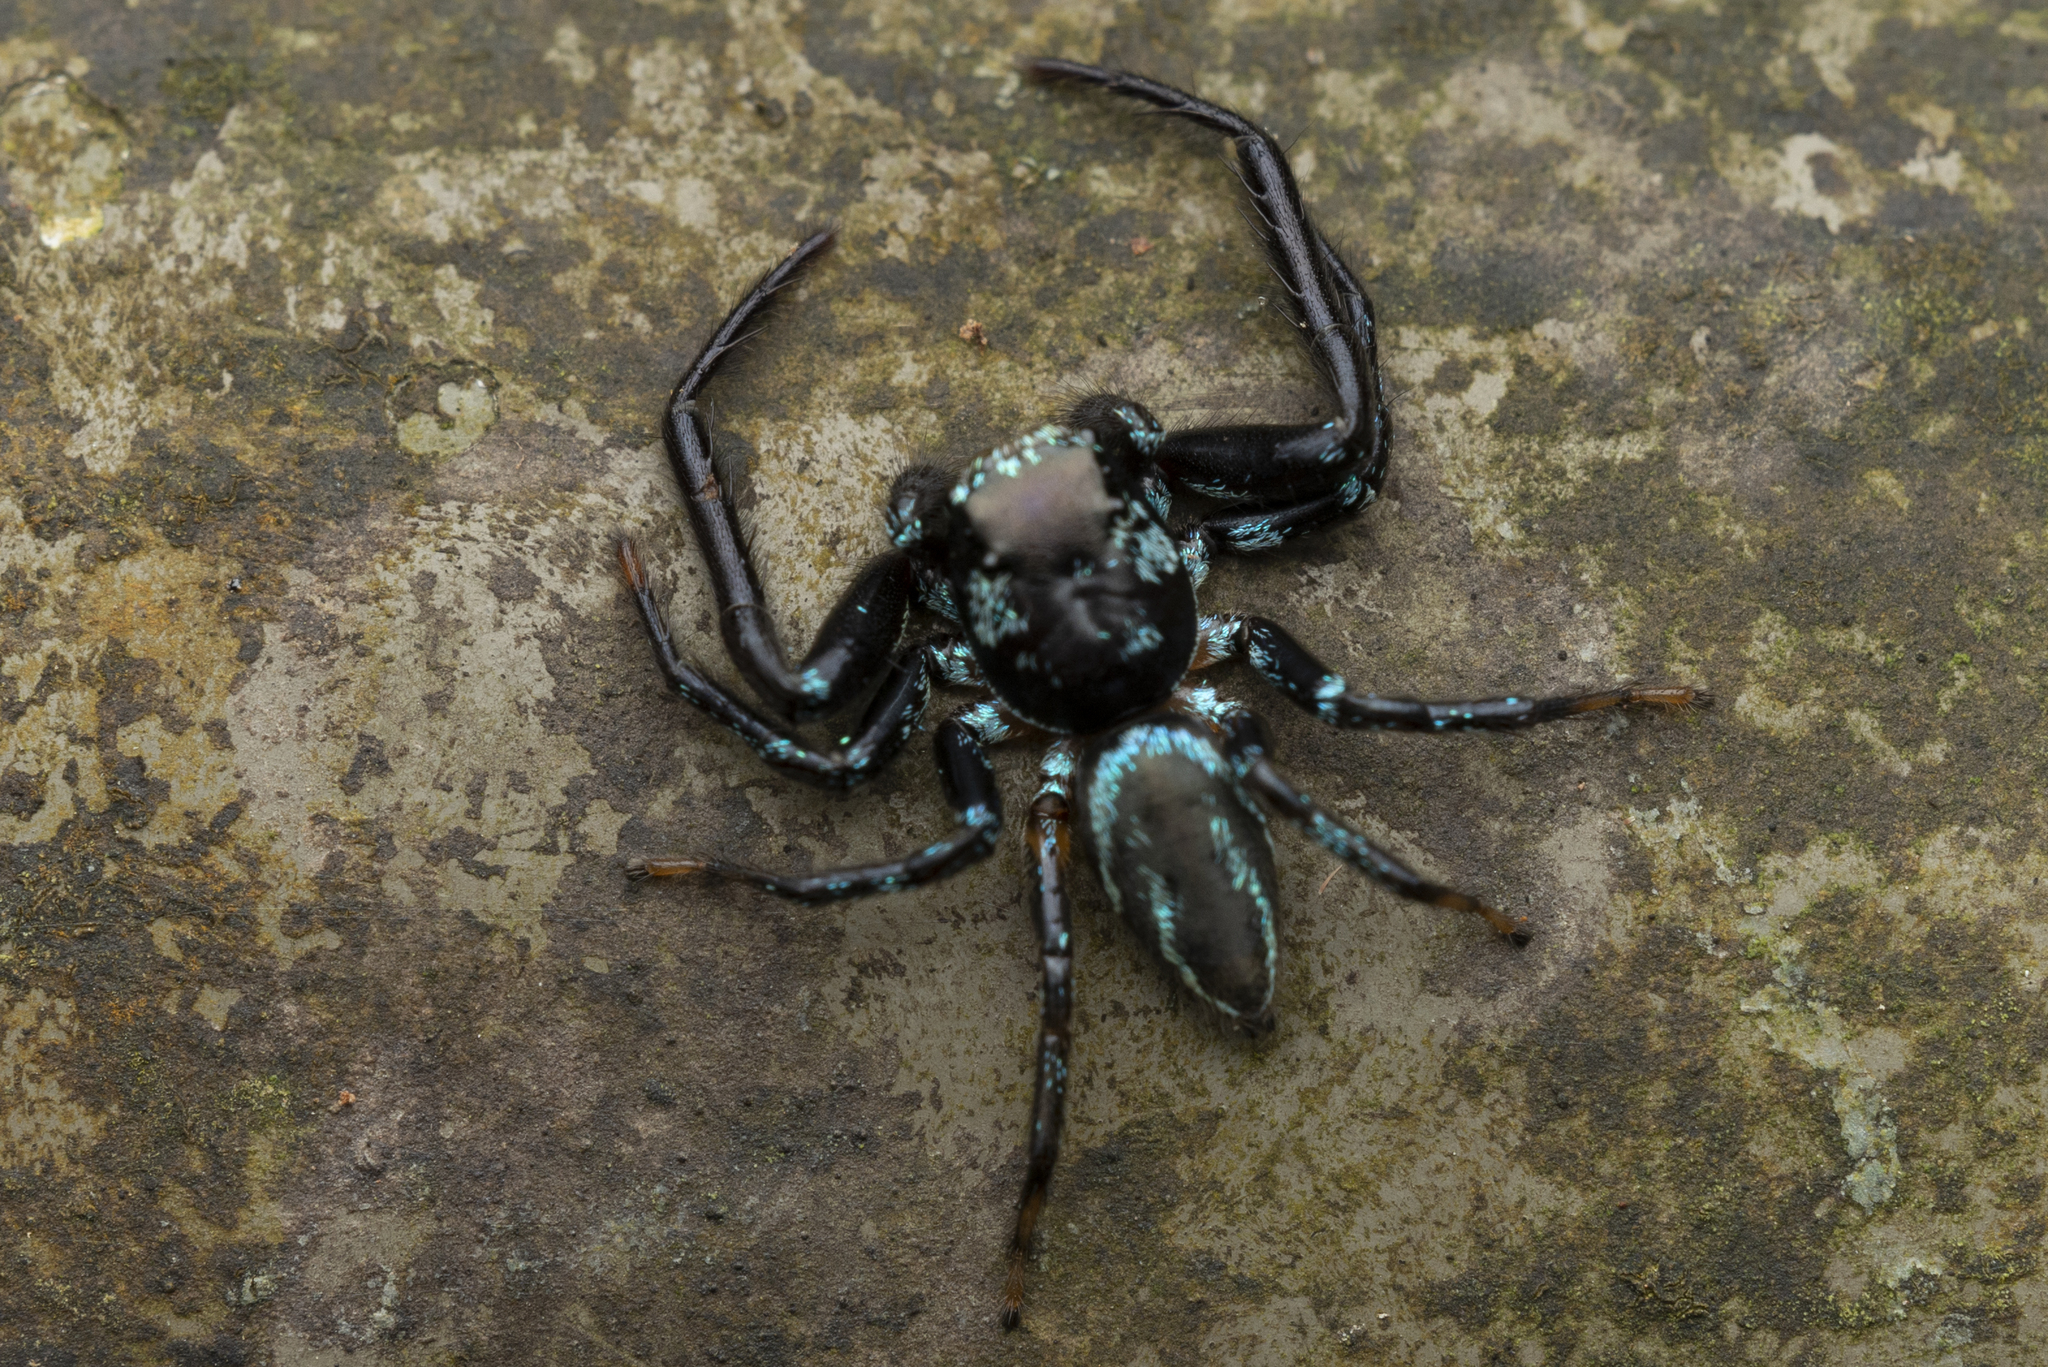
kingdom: Animalia
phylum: Arthropoda
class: Arachnida
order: Araneae
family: Salticidae
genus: Thiania
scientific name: Thiania suboppressa
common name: Jumping spider
